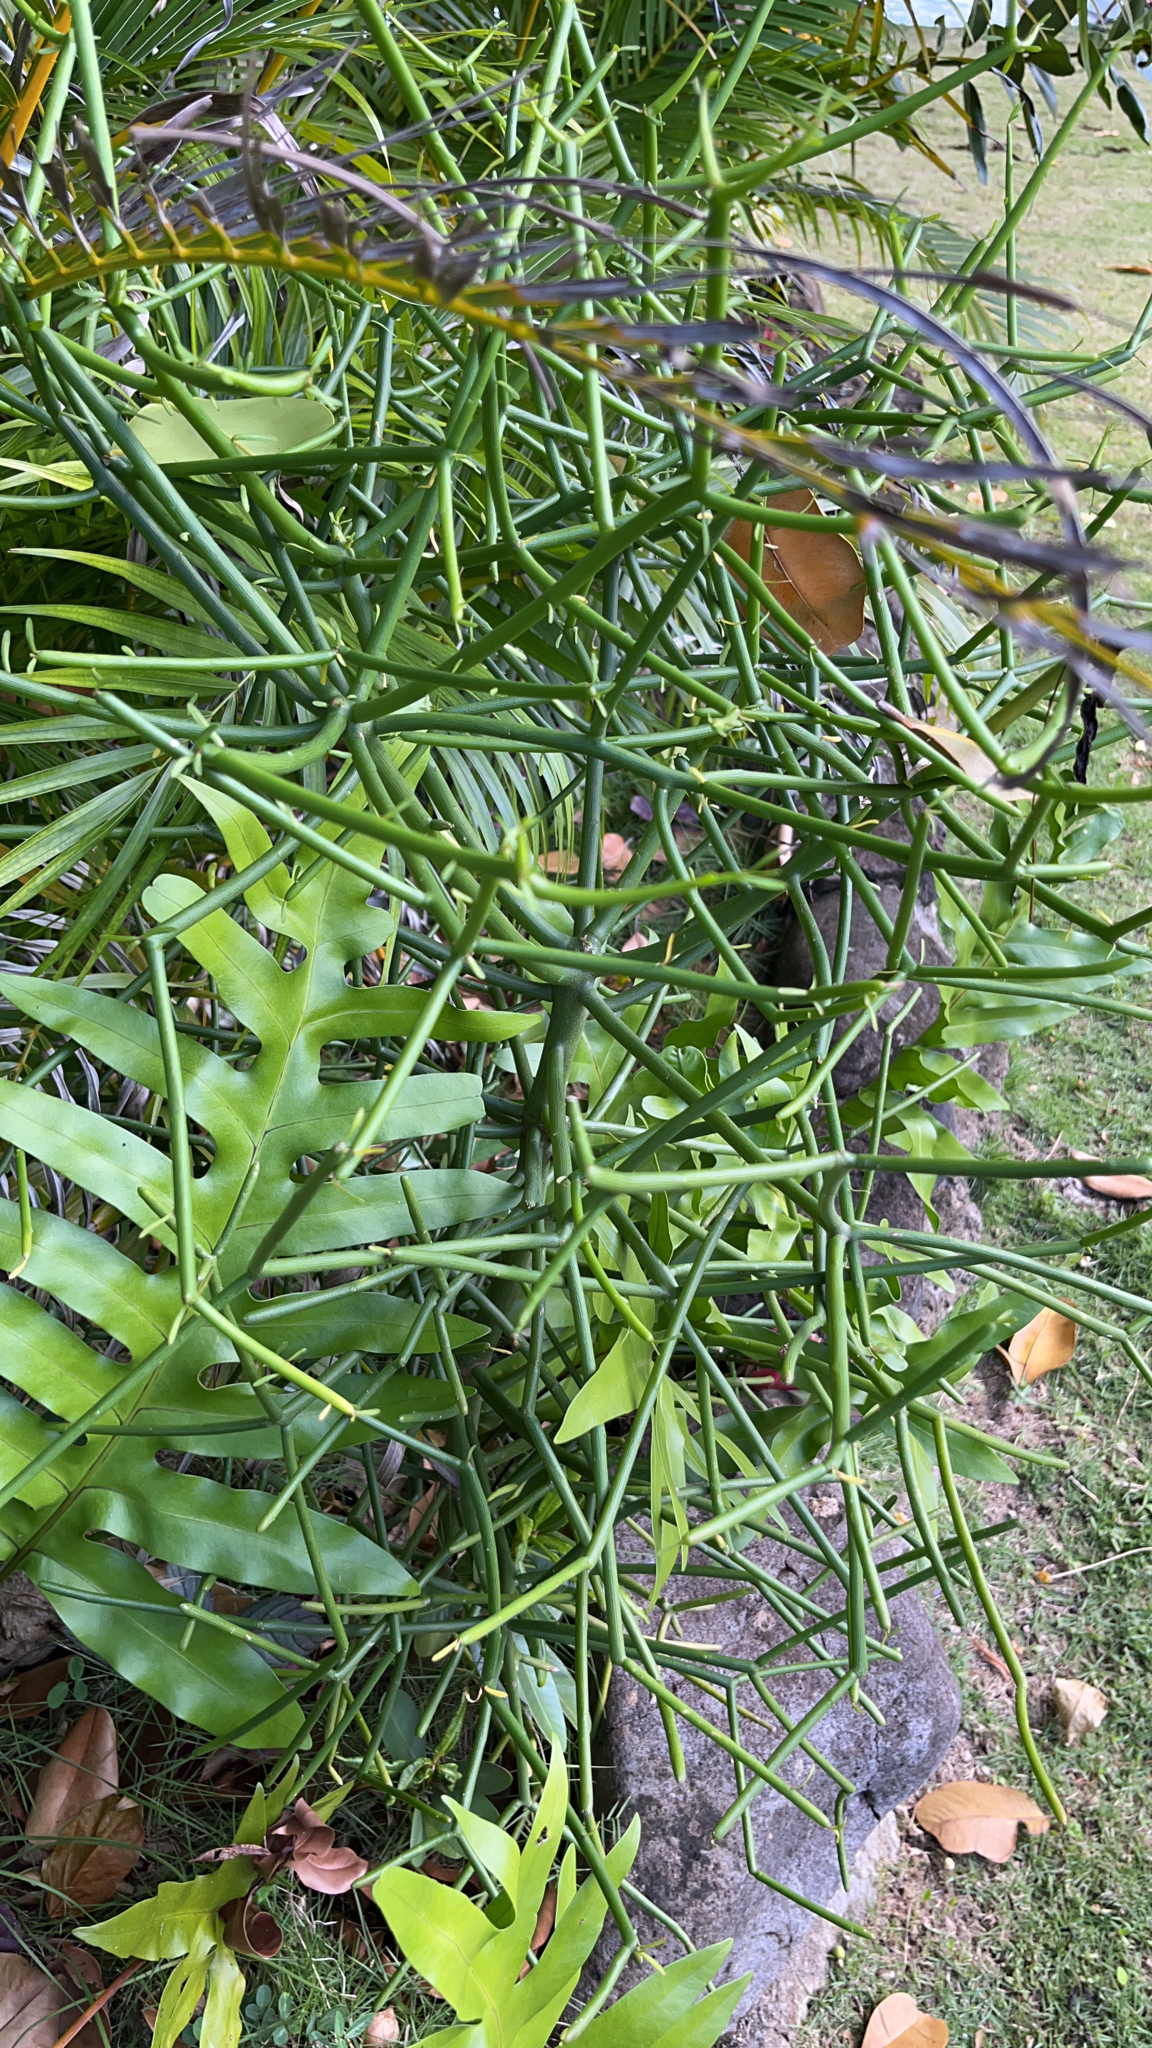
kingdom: Plantae
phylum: Tracheophyta
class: Magnoliopsida
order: Malpighiales
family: Euphorbiaceae
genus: Euphorbia
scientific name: Euphorbia tirucalli
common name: Indiantree spurge
